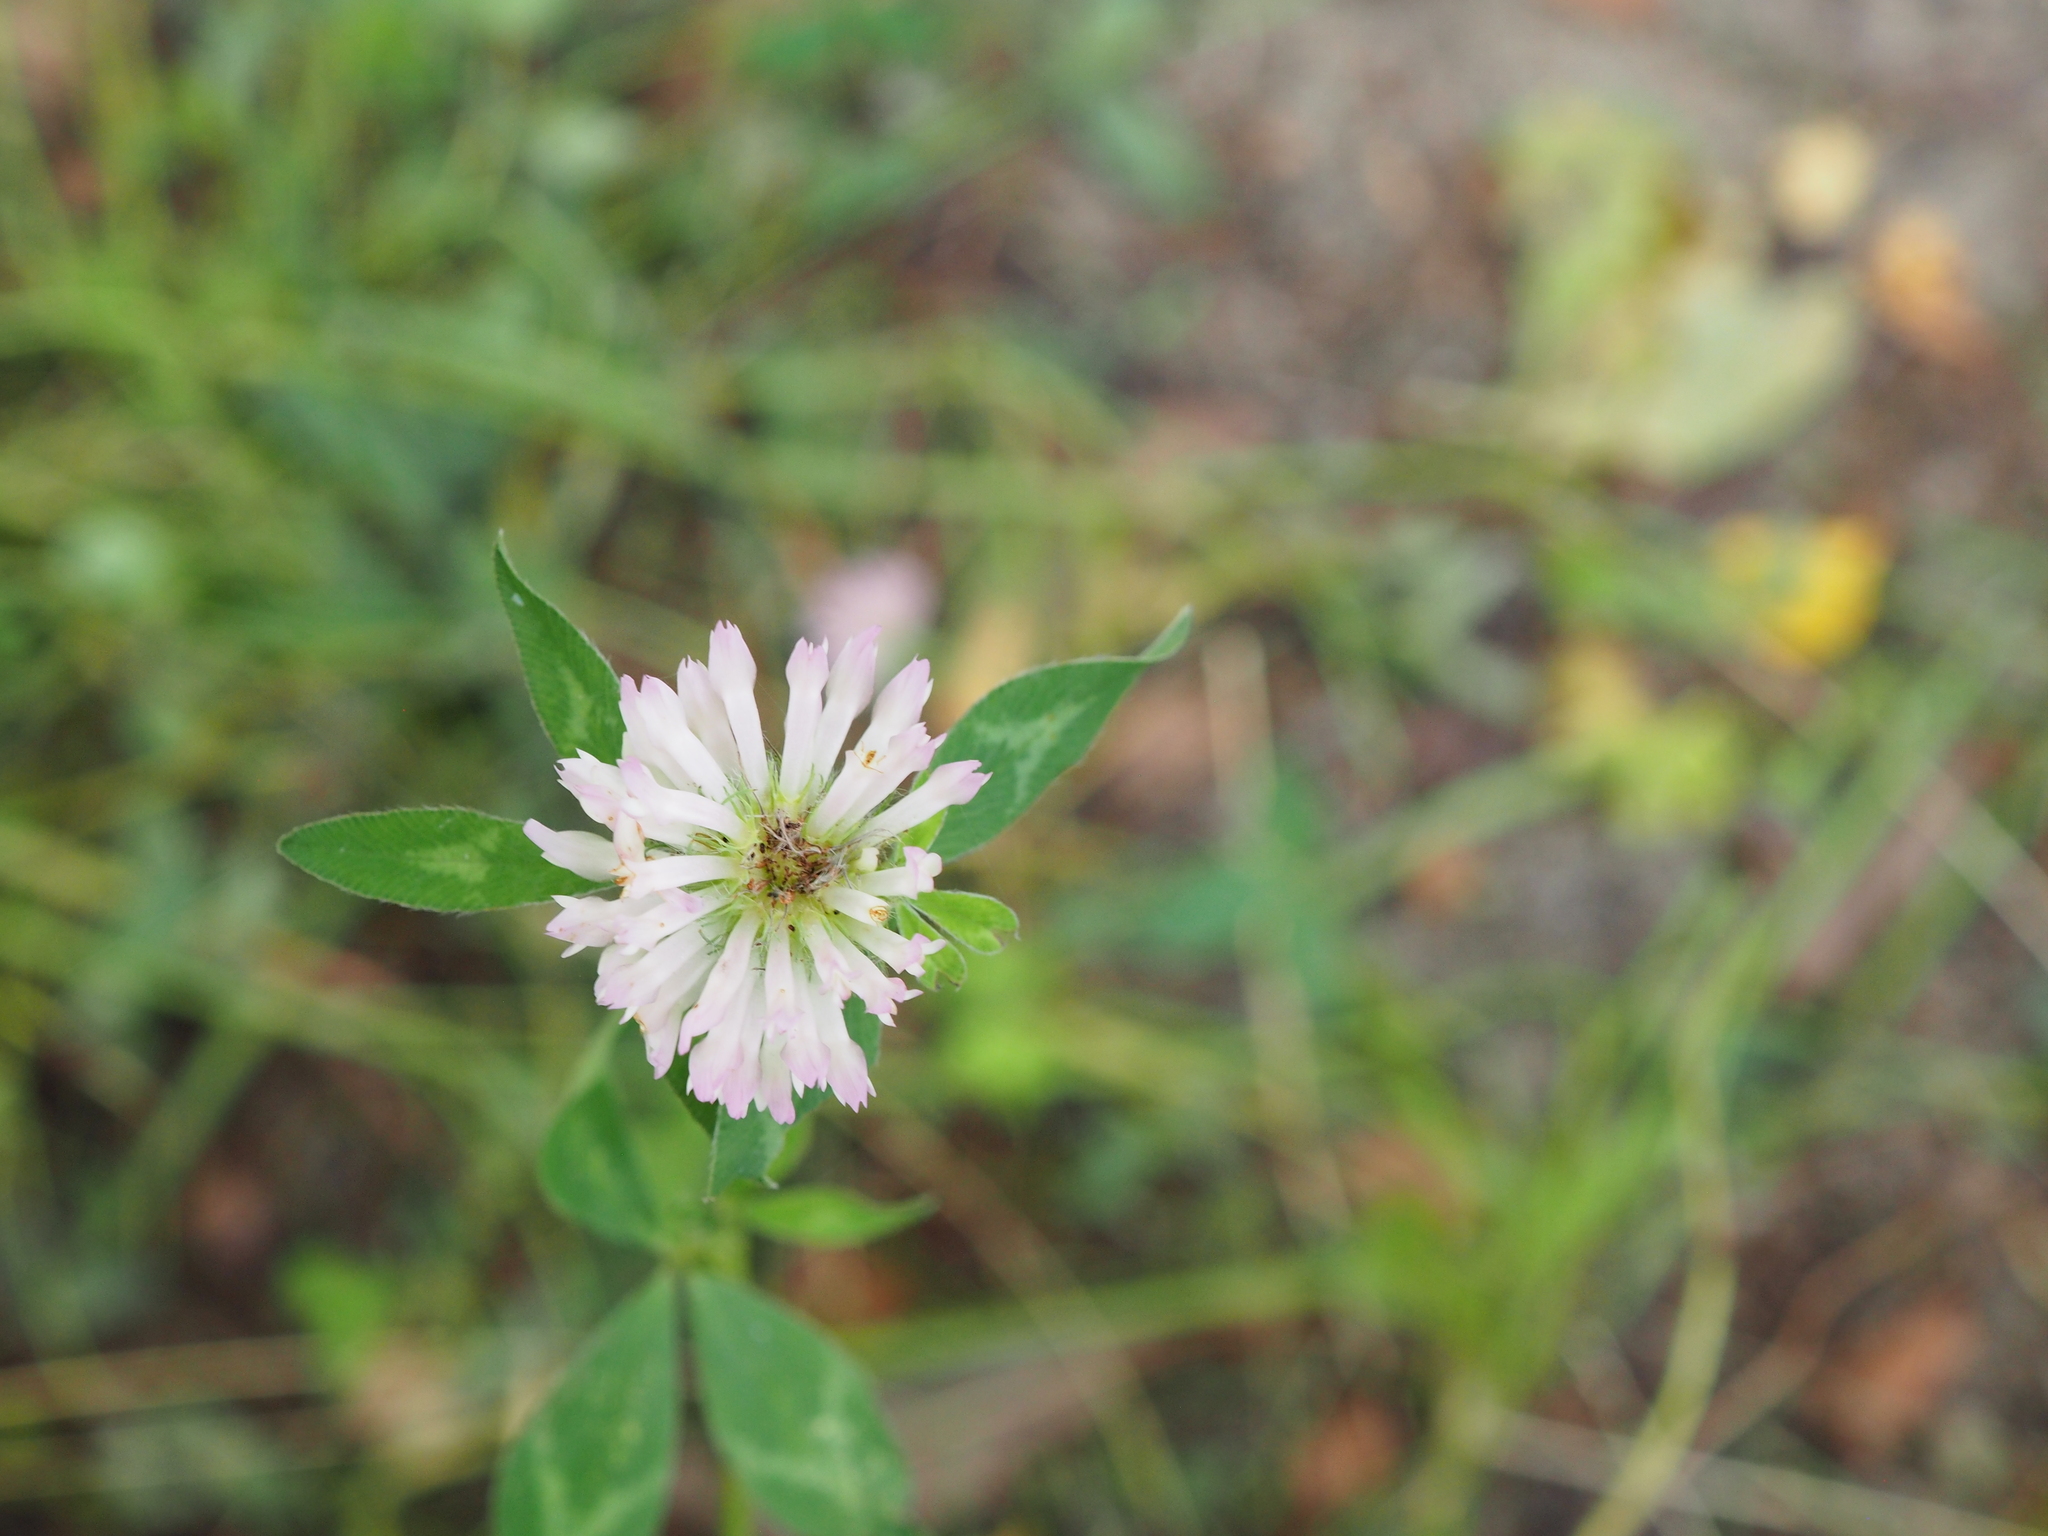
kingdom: Plantae
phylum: Tracheophyta
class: Magnoliopsida
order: Fabales
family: Fabaceae
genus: Trifolium
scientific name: Trifolium pratense
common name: Red clover
